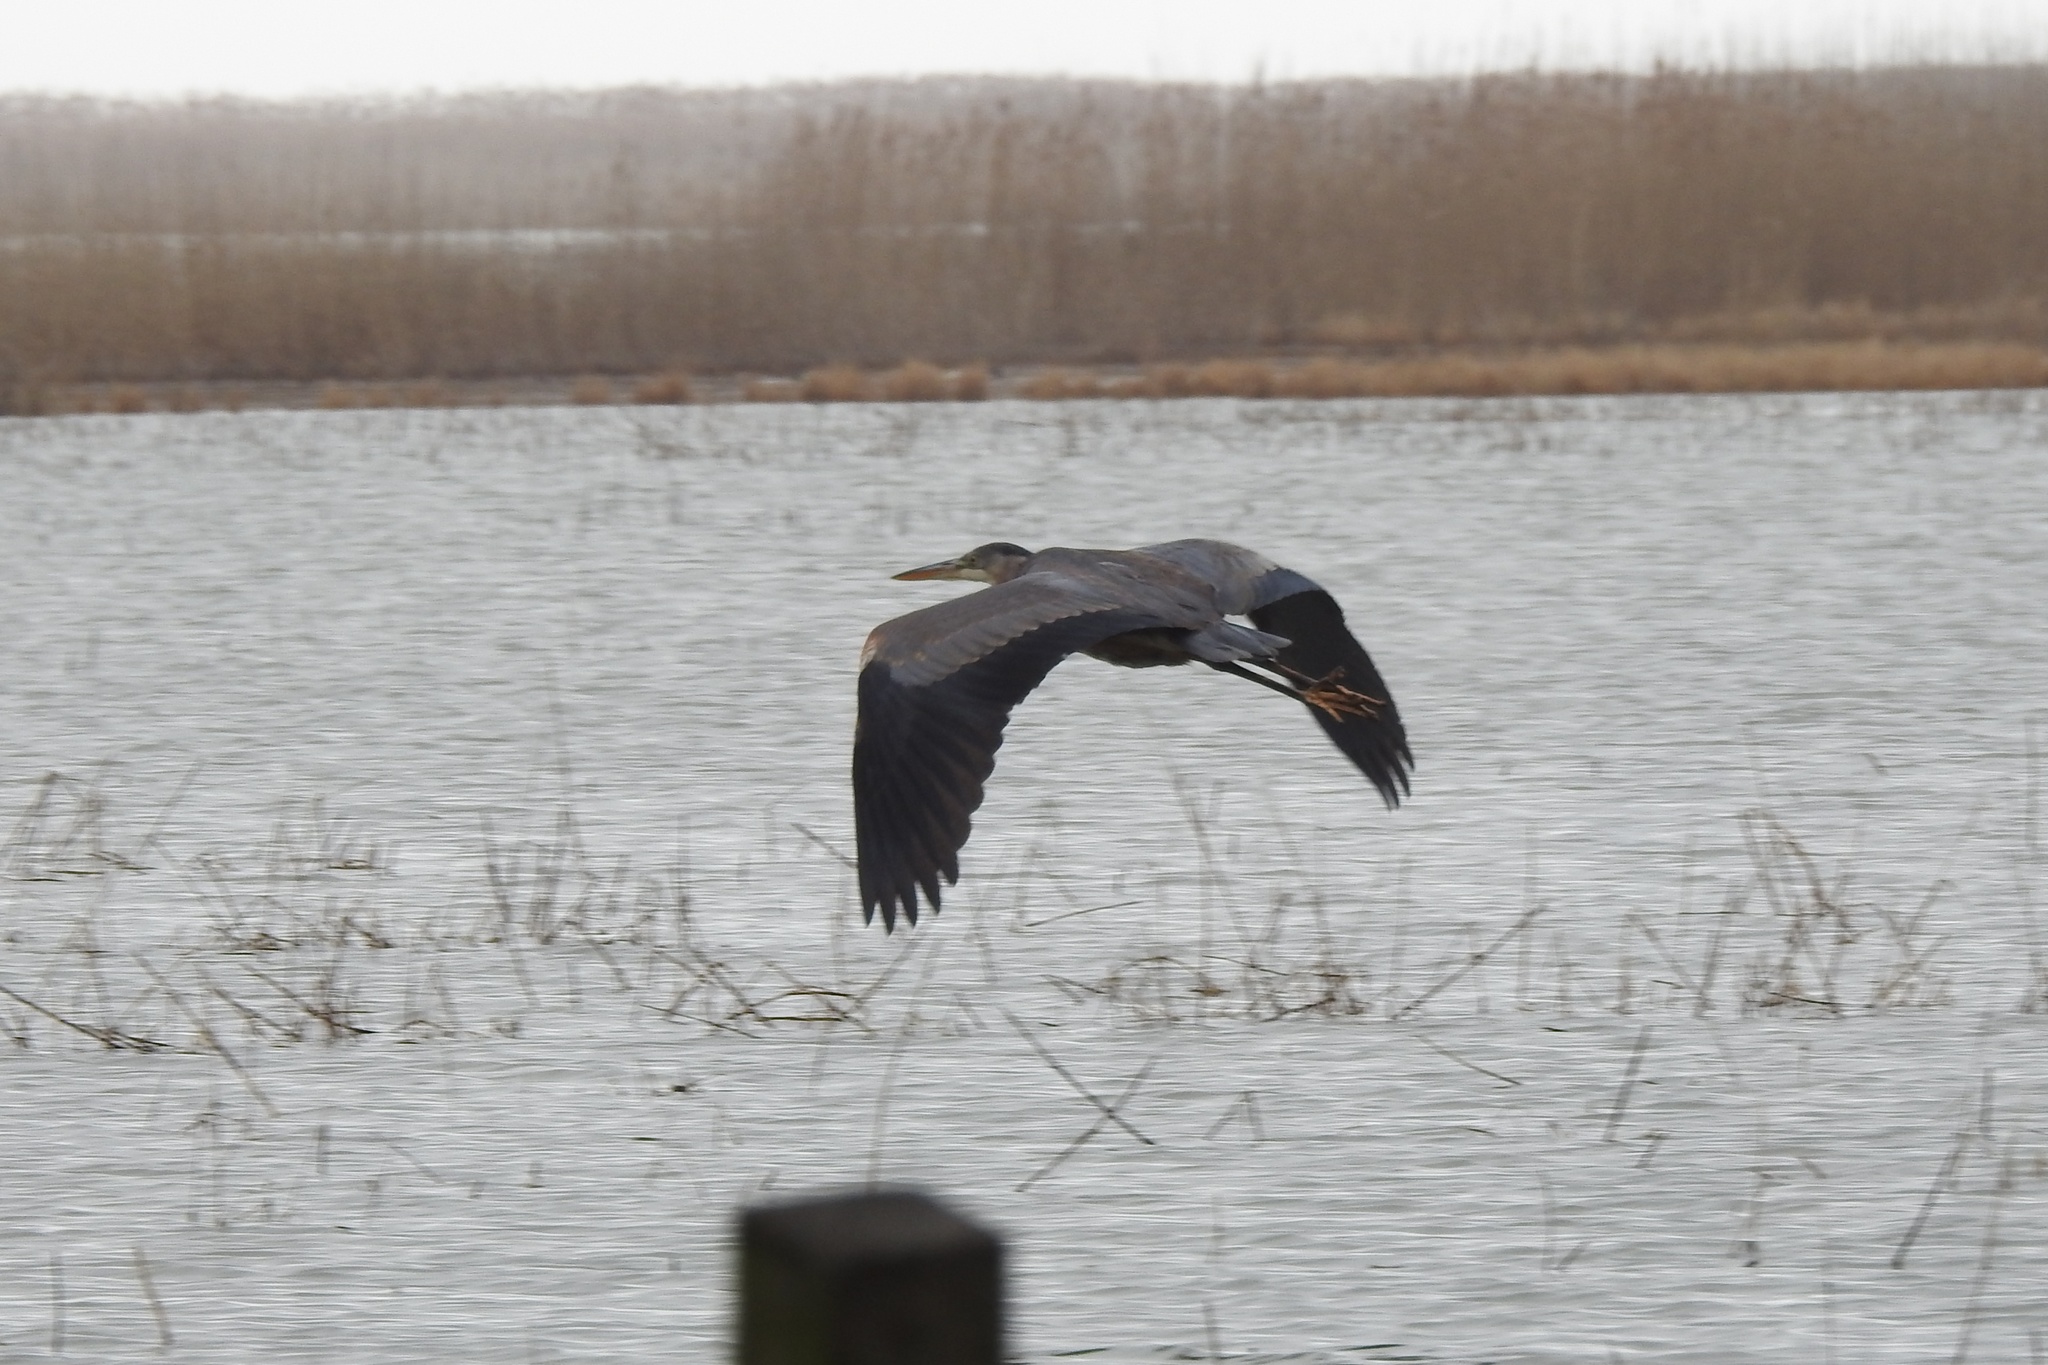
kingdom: Animalia
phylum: Chordata
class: Aves
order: Pelecaniformes
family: Ardeidae
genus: Ardea
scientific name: Ardea herodias
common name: Great blue heron
